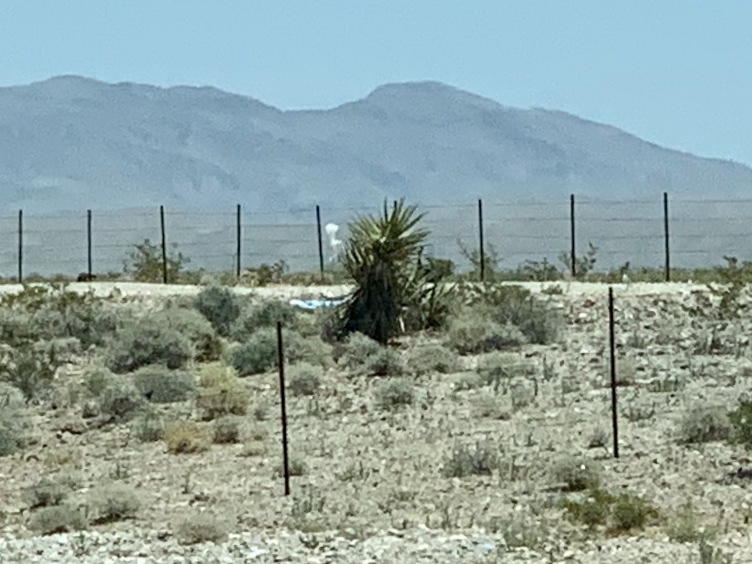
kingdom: Plantae
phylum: Tracheophyta
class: Liliopsida
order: Asparagales
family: Asparagaceae
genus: Yucca
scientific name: Yucca schidigera
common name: Mojave yucca
